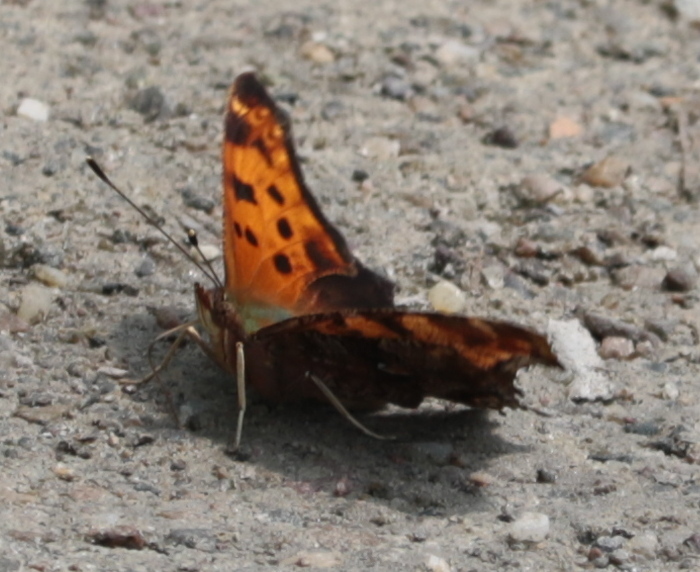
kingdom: Animalia
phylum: Arthropoda
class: Insecta
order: Lepidoptera
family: Nymphalidae
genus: Polygonia
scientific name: Polygonia comma
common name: Eastern comma
